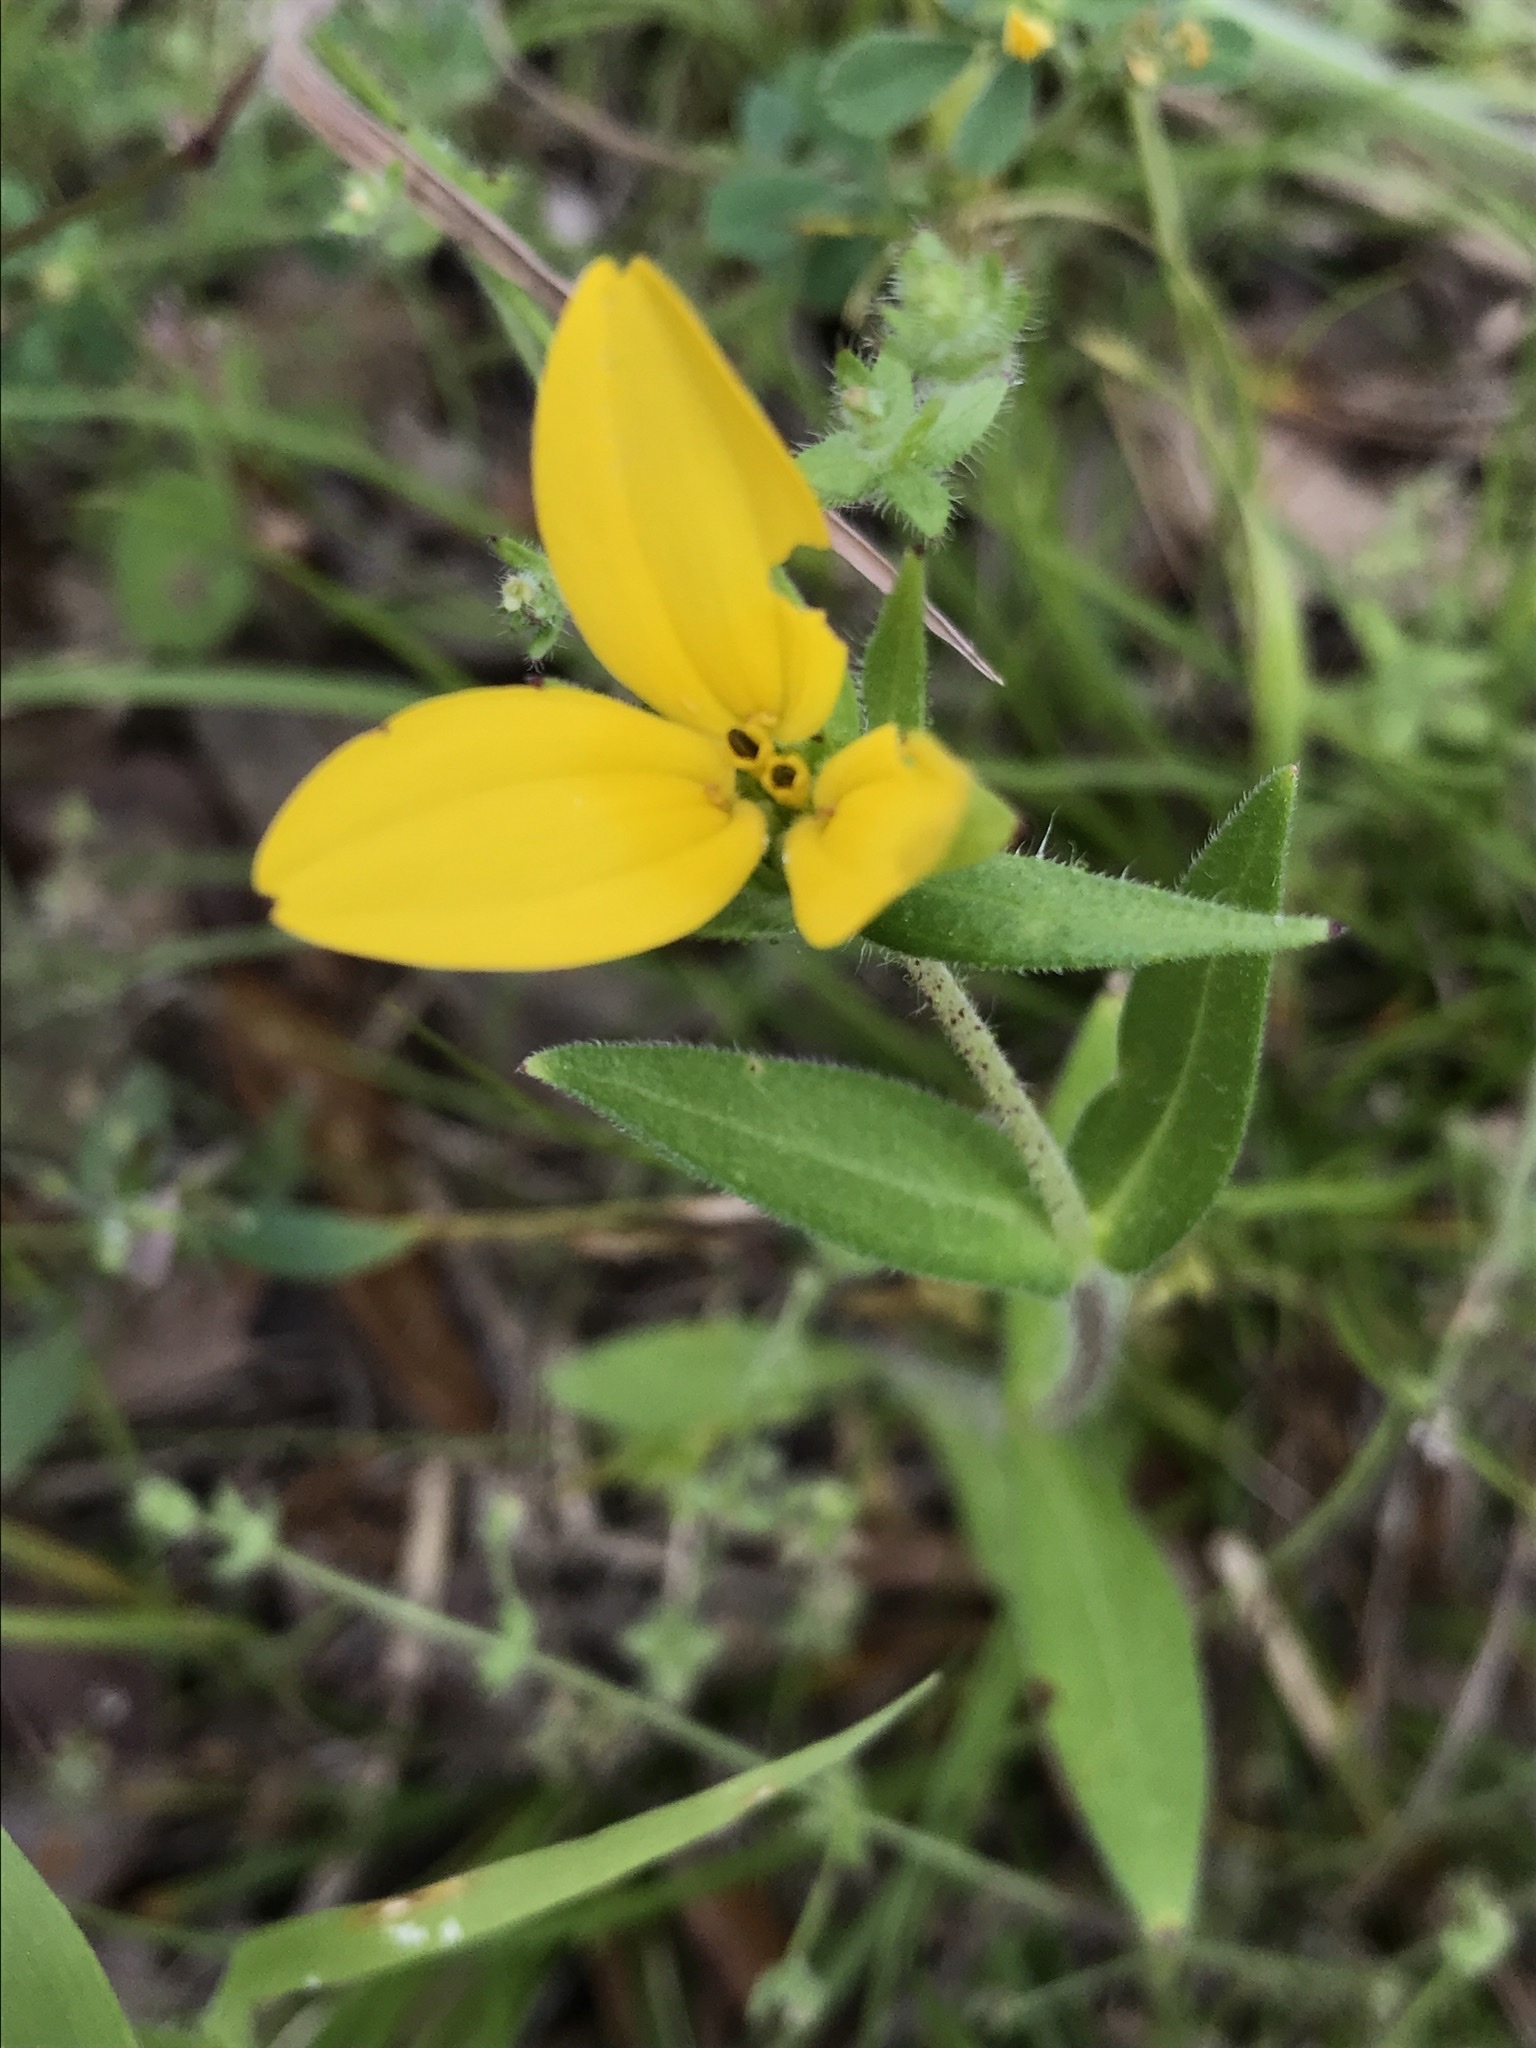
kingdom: Plantae
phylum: Tracheophyta
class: Magnoliopsida
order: Asterales
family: Asteraceae
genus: Lindheimera
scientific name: Lindheimera texana
